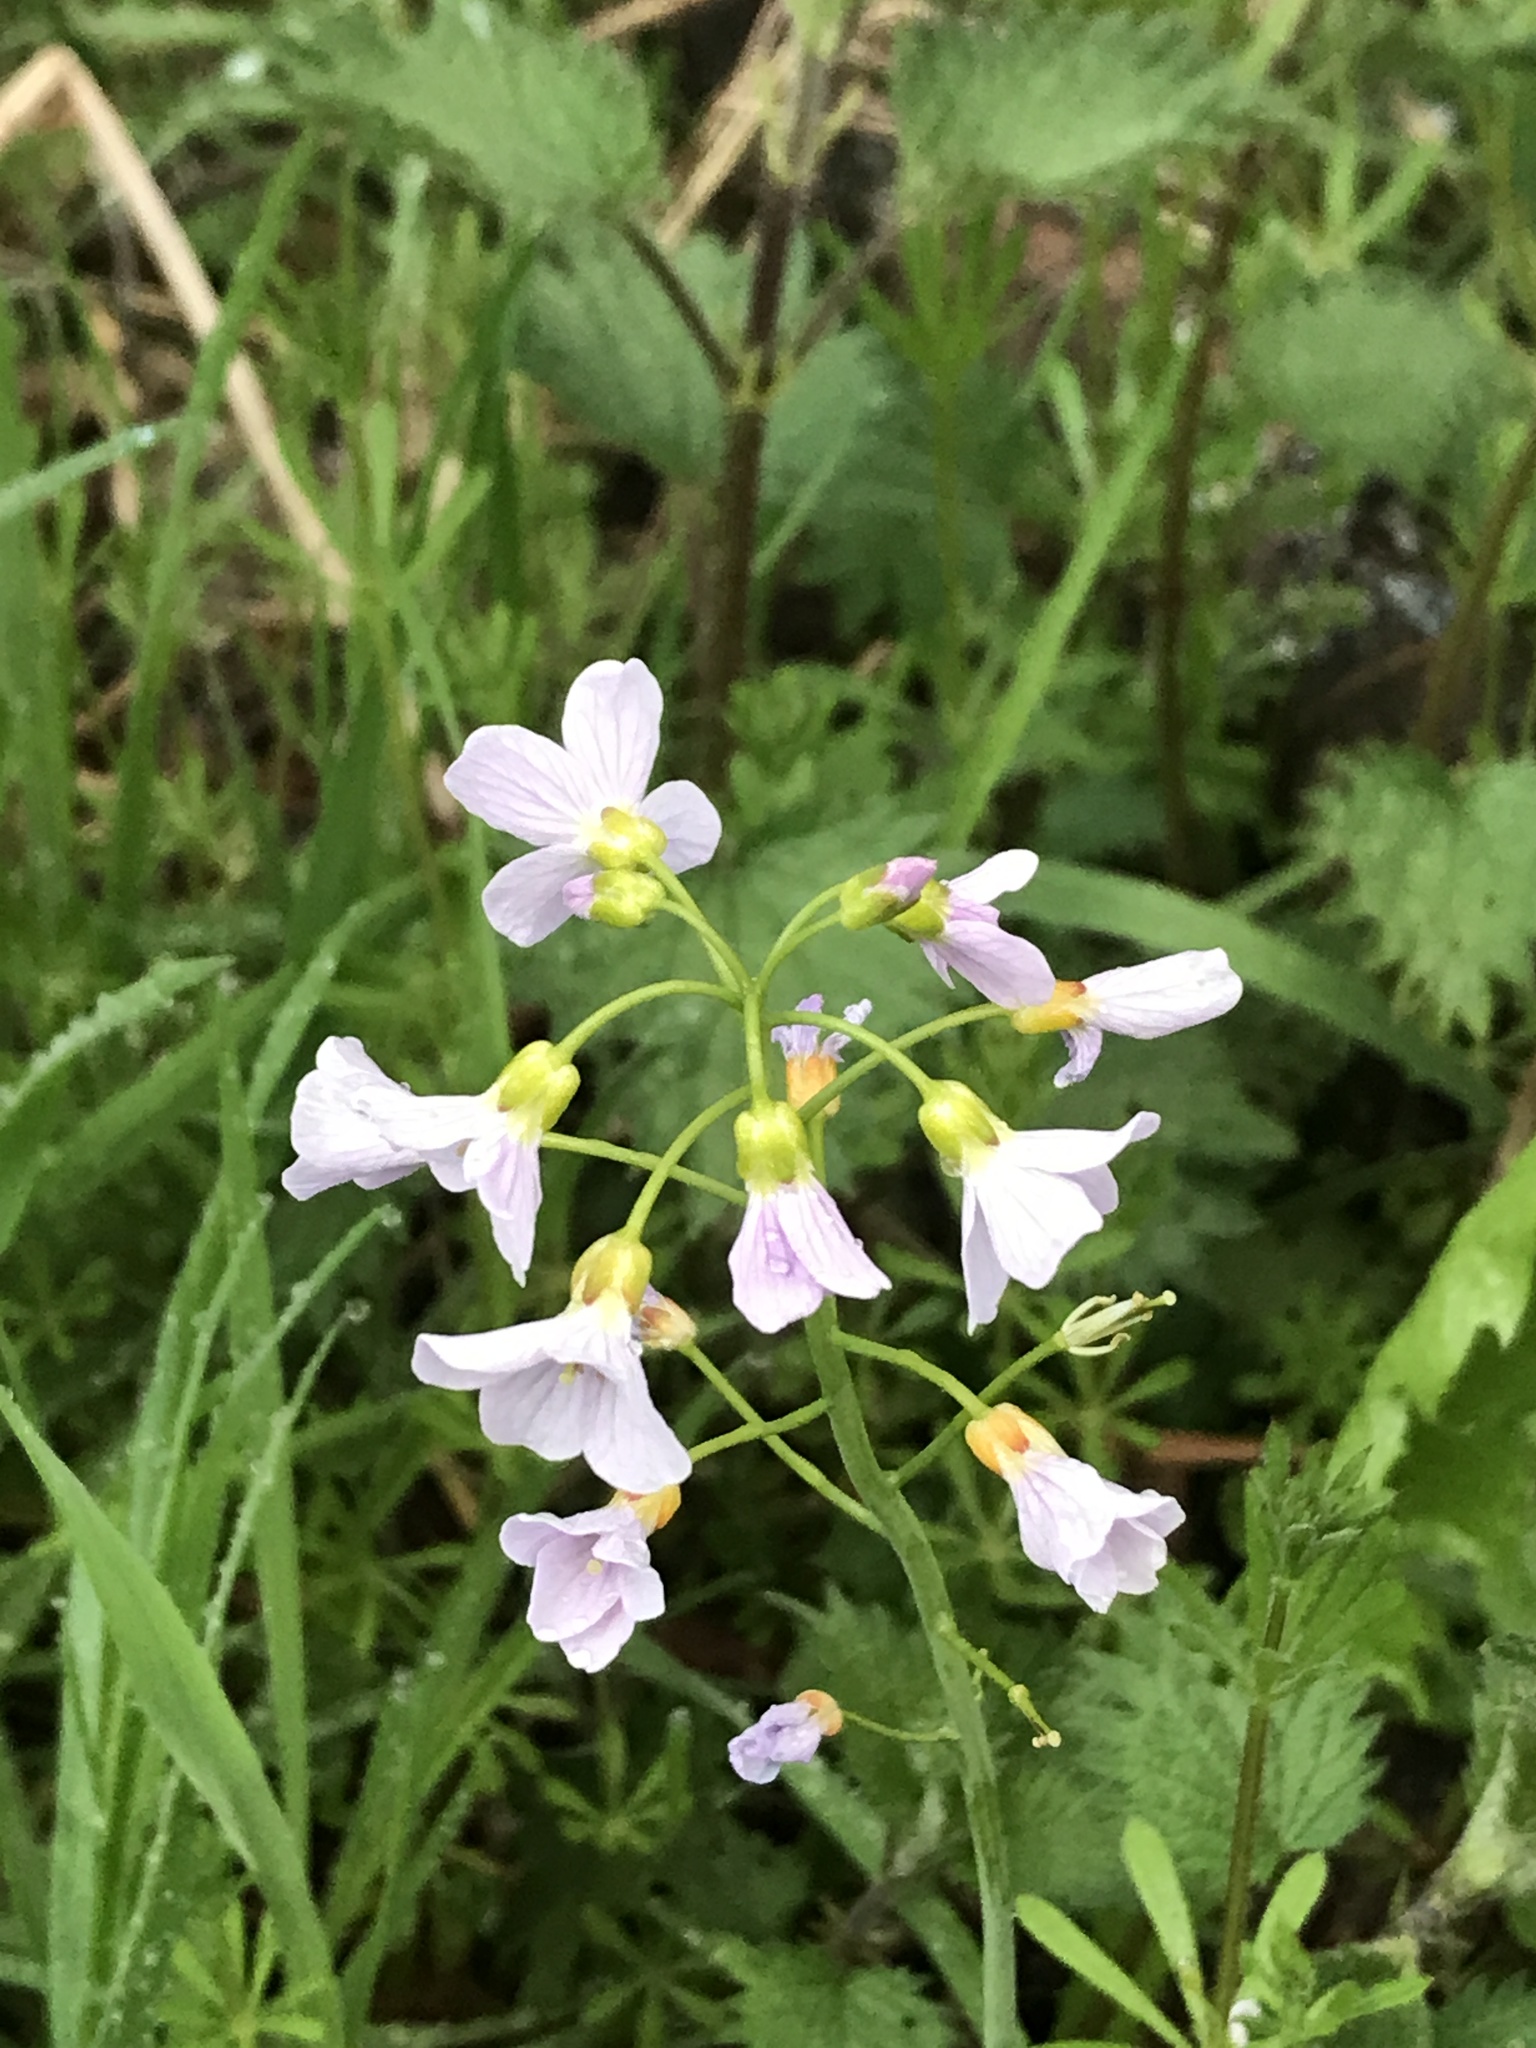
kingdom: Plantae
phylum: Tracheophyta
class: Magnoliopsida
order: Brassicales
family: Brassicaceae
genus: Cardamine
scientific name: Cardamine pratensis
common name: Cuckoo flower
